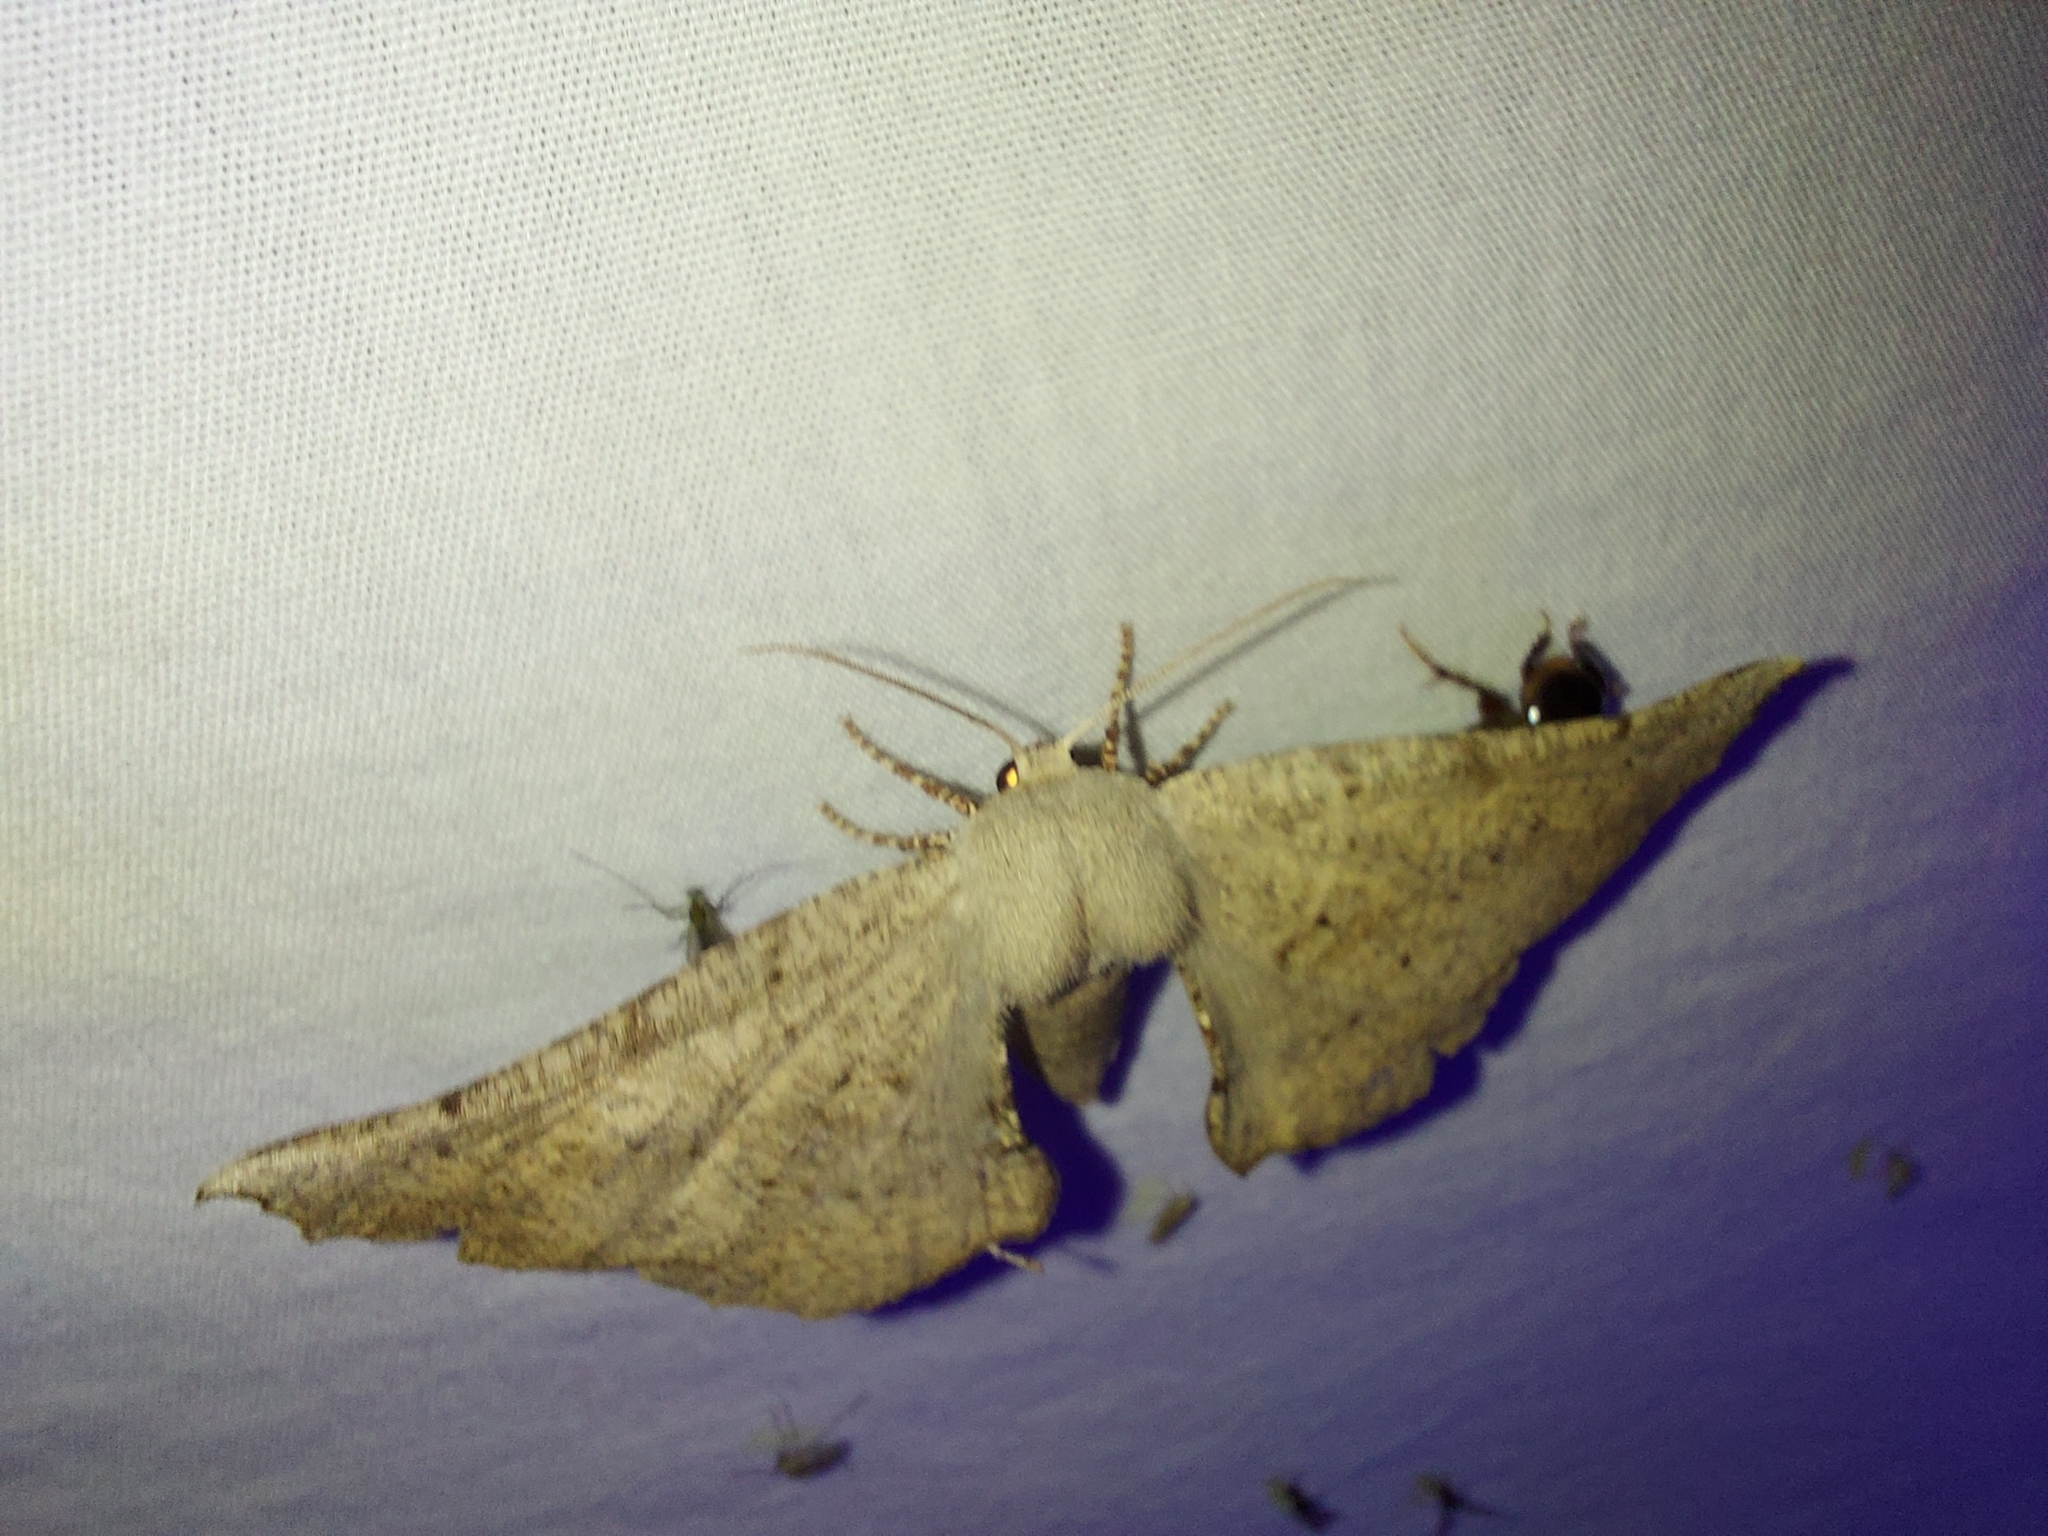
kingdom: Animalia
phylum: Arthropoda
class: Insecta
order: Lepidoptera
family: Geometridae
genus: Circopetes
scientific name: Circopetes obtusata
